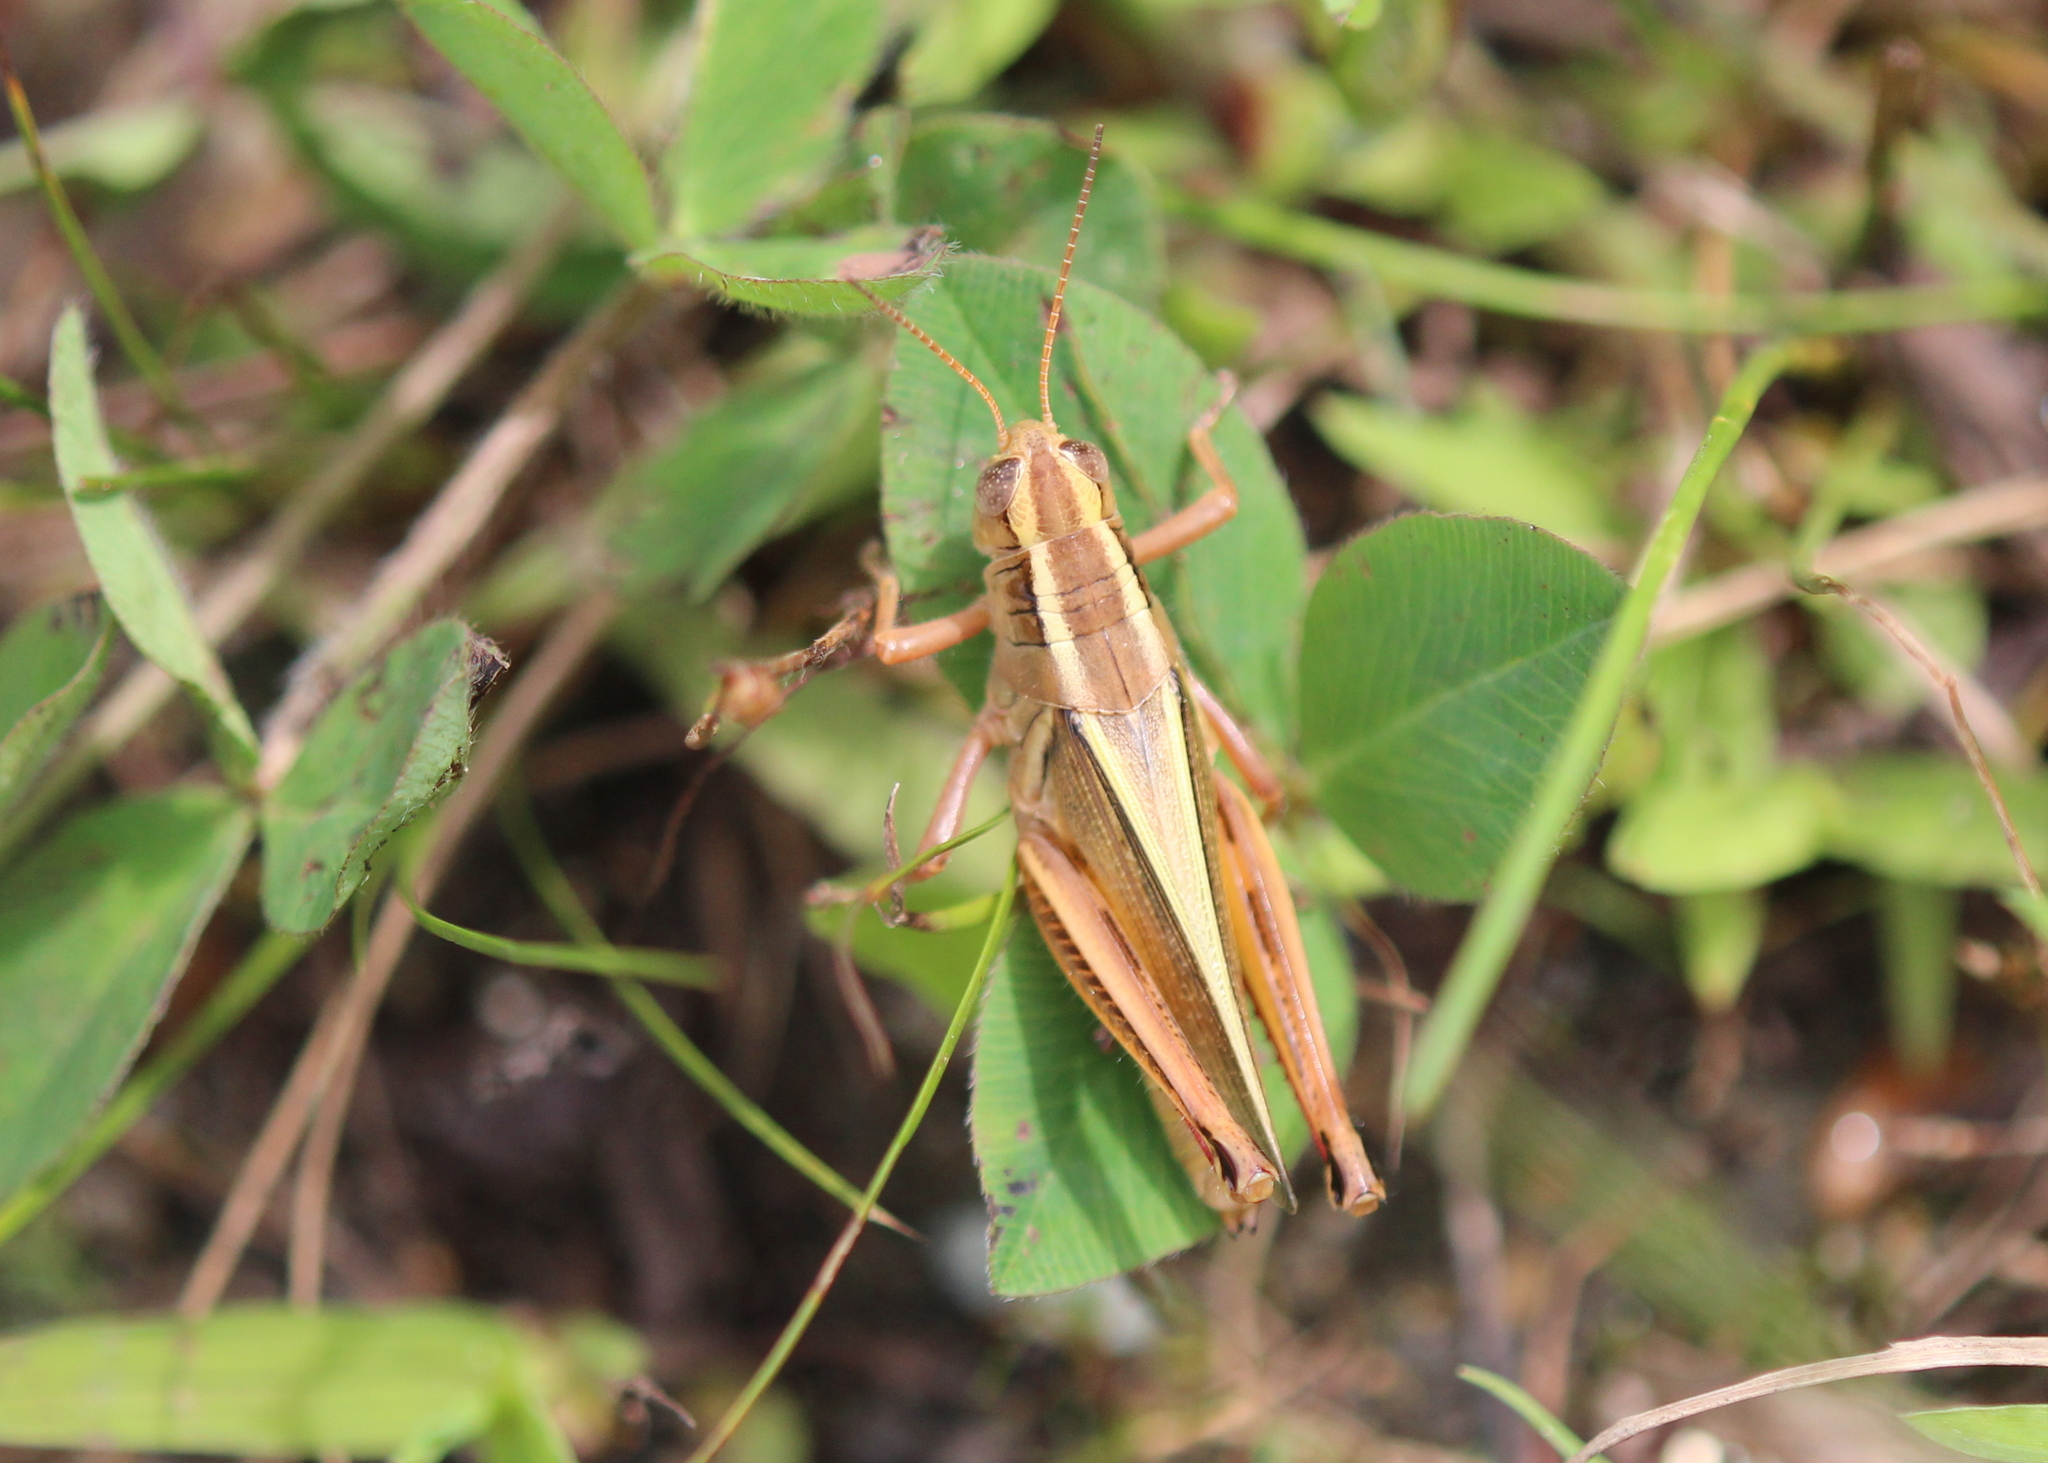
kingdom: Animalia
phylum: Arthropoda
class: Insecta
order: Orthoptera
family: Acrididae
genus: Melanoplus
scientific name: Melanoplus bivittatus
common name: Two-striped grasshopper
